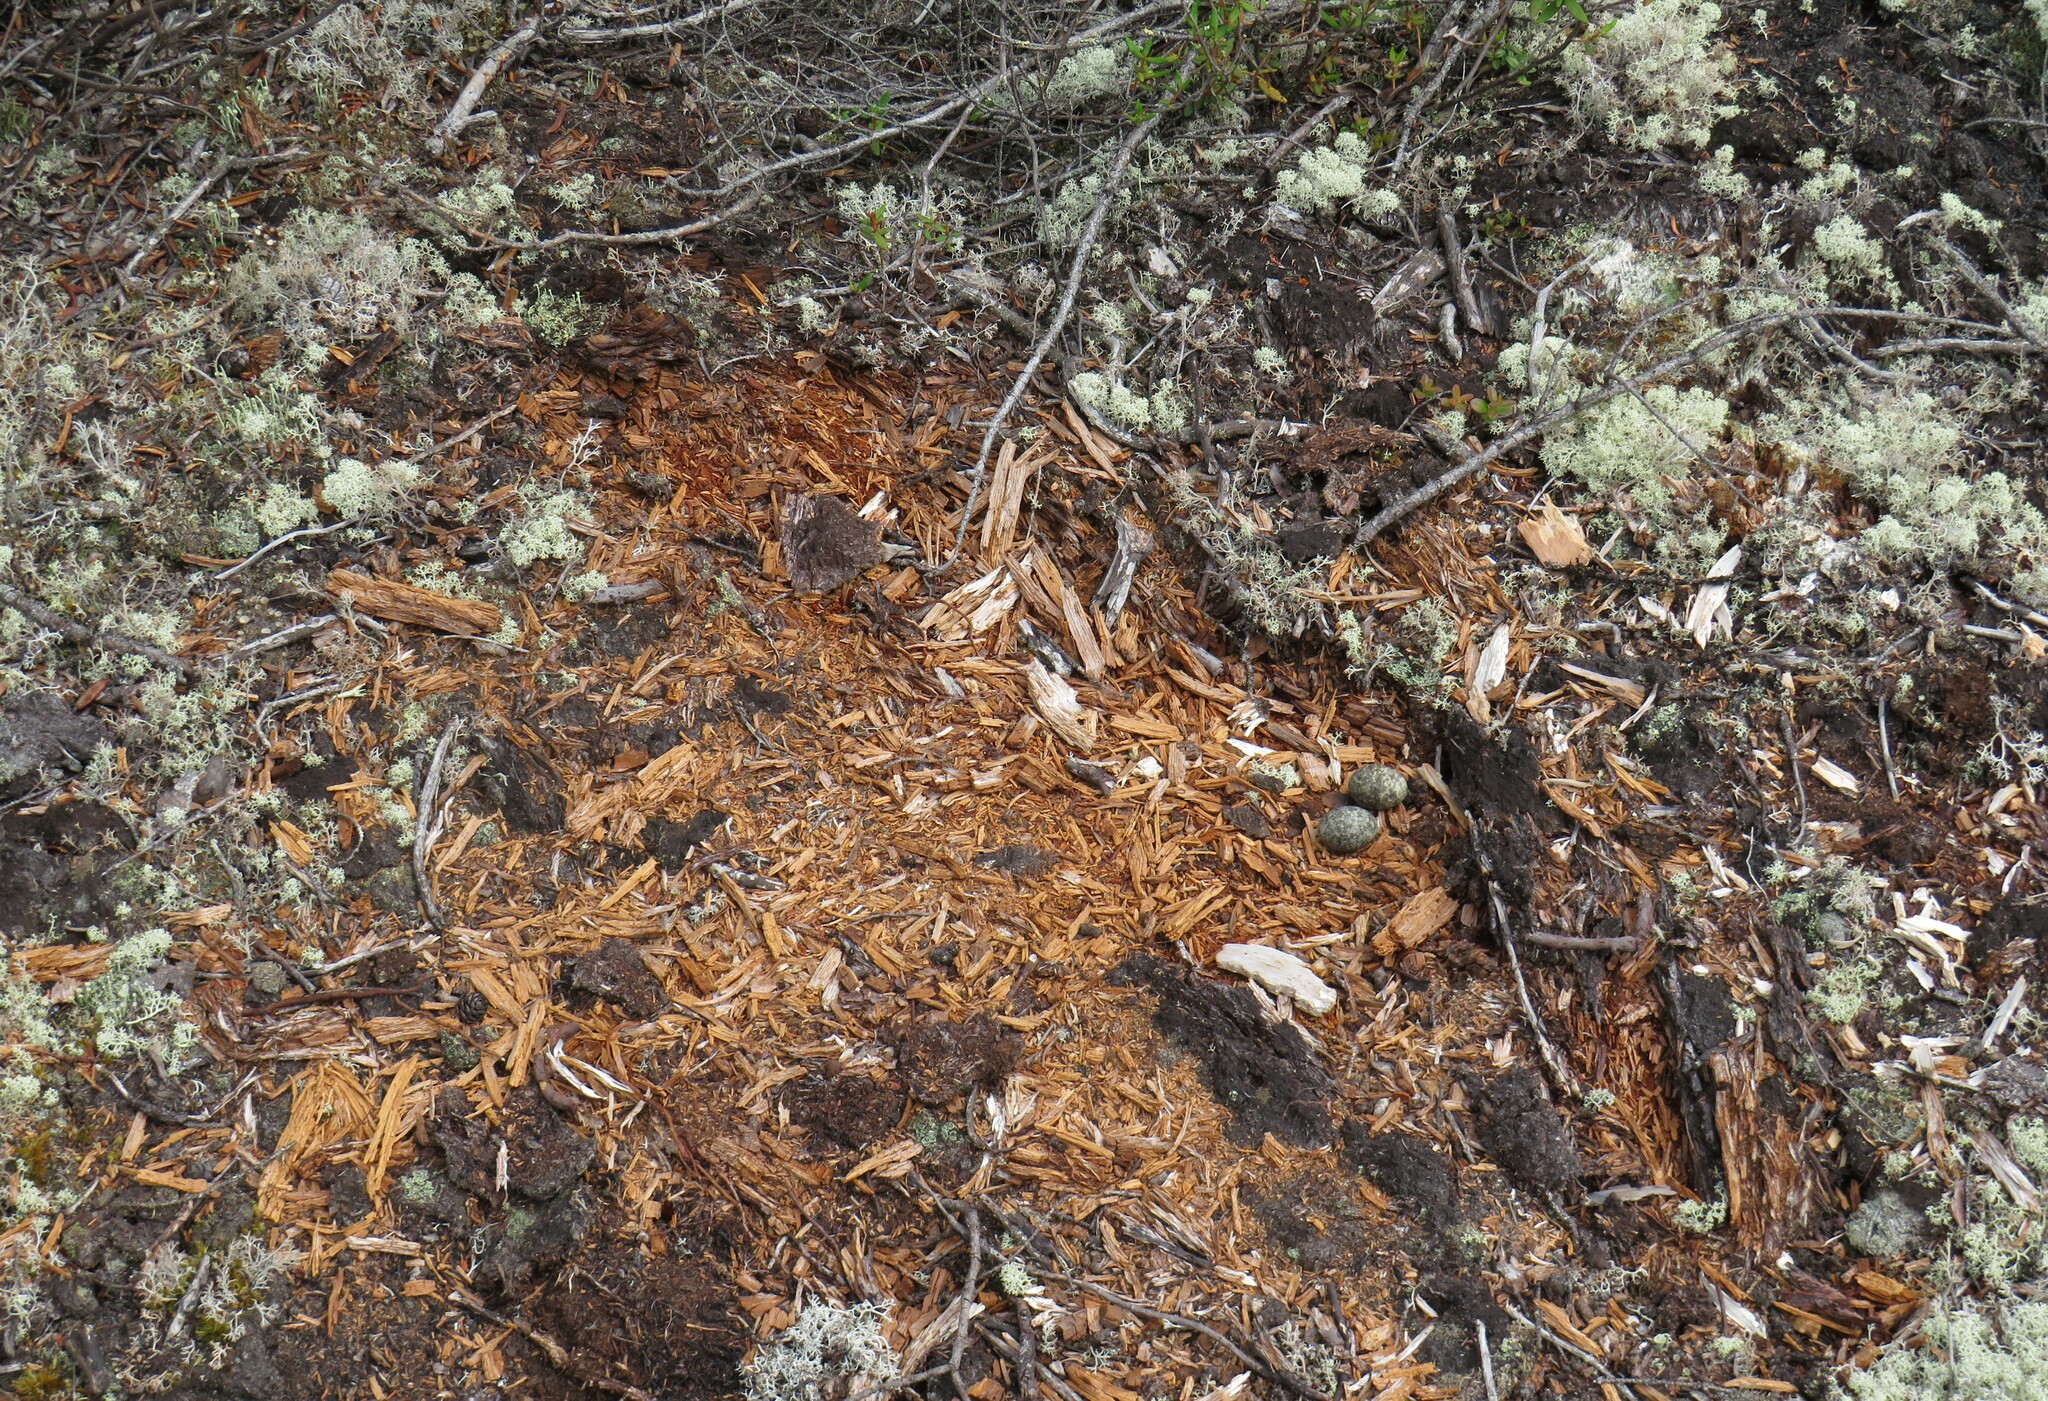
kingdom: Animalia
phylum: Chordata
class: Aves
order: Caprimulgiformes
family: Caprimulgidae
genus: Chordeiles
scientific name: Chordeiles minor
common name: Common nighthawk
